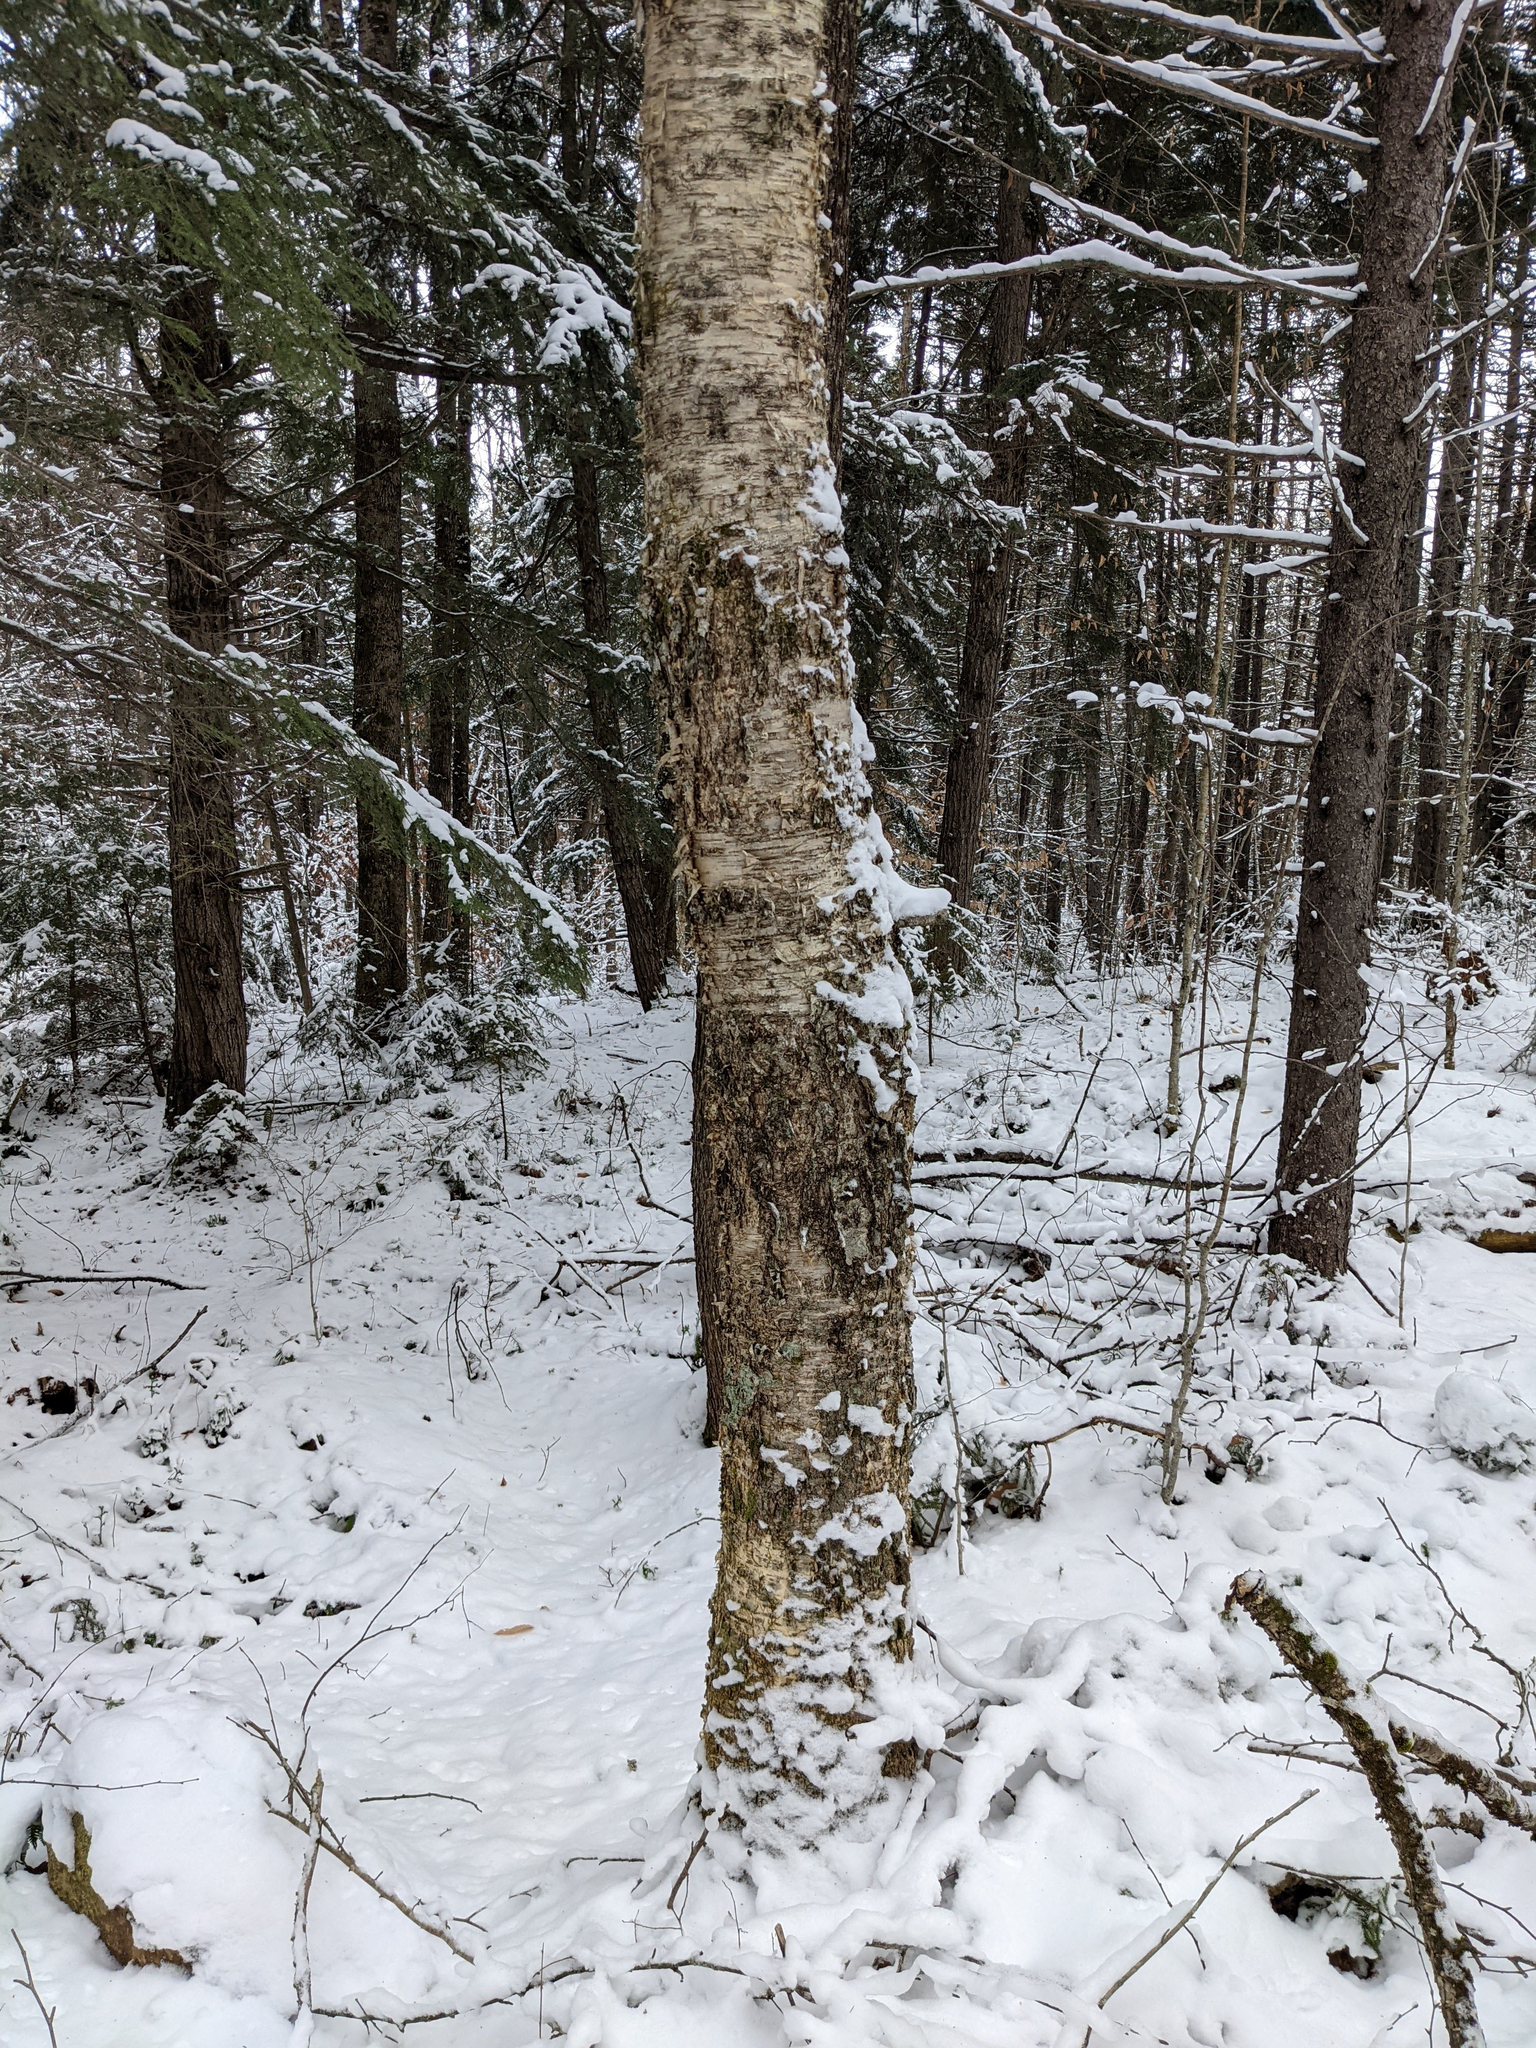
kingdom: Plantae
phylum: Tracheophyta
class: Magnoliopsida
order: Fagales
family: Betulaceae
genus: Betula
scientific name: Betula alleghaniensis
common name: Yellow birch
